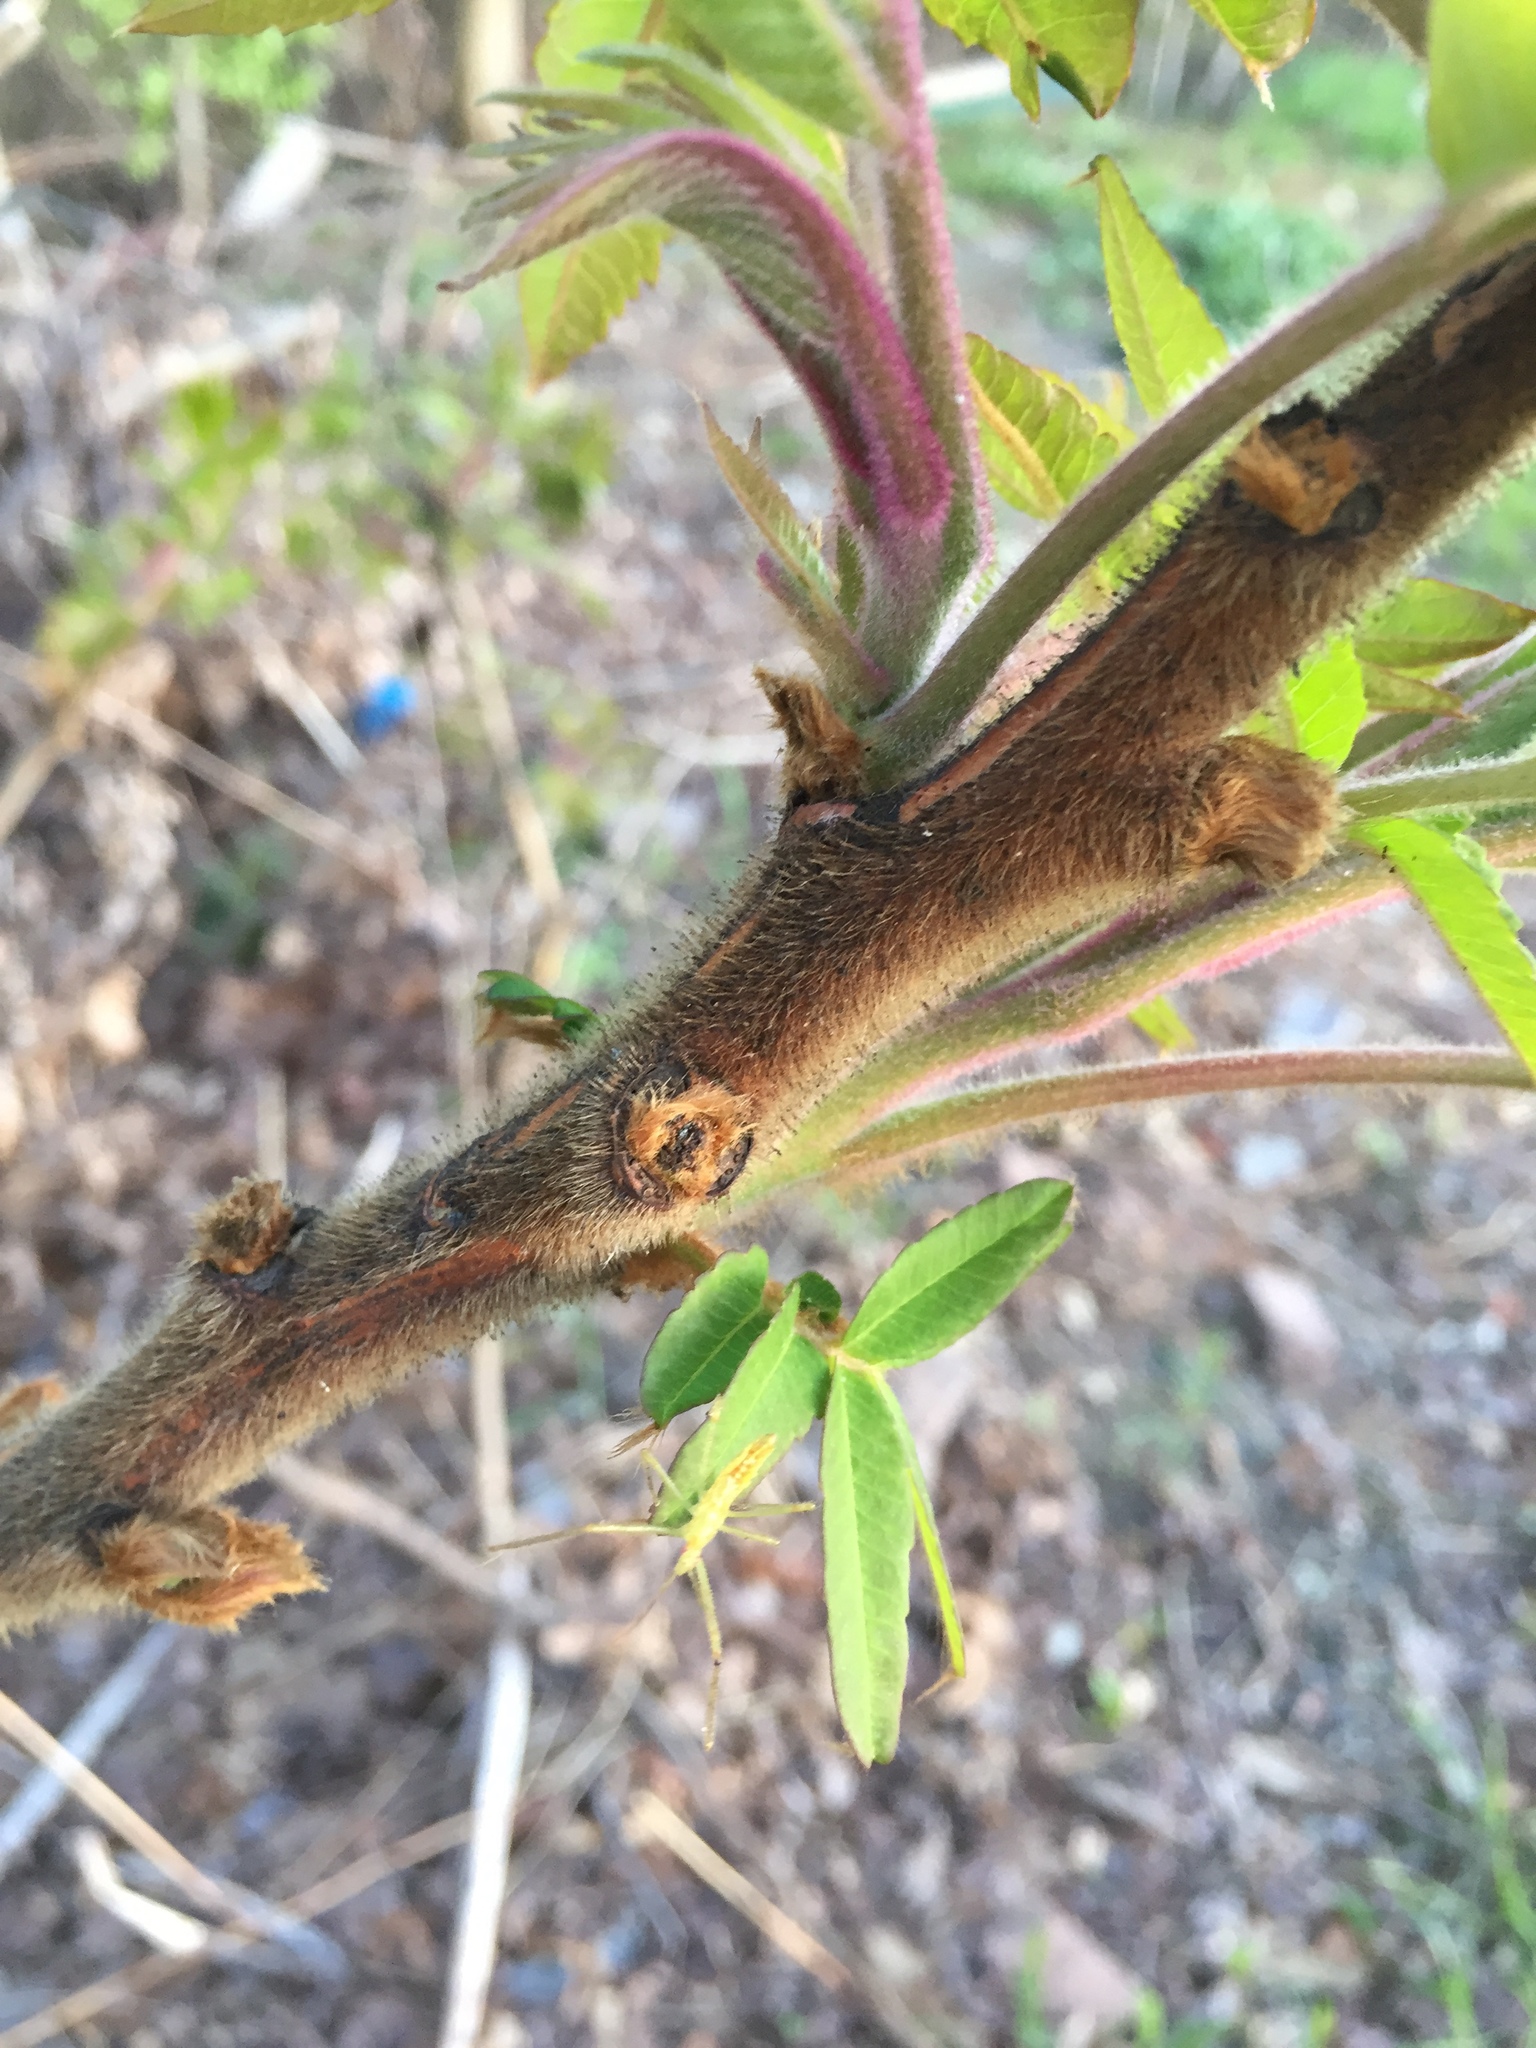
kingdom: Plantae
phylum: Tracheophyta
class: Magnoliopsida
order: Sapindales
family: Anacardiaceae
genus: Rhus
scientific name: Rhus typhina
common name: Staghorn sumac
